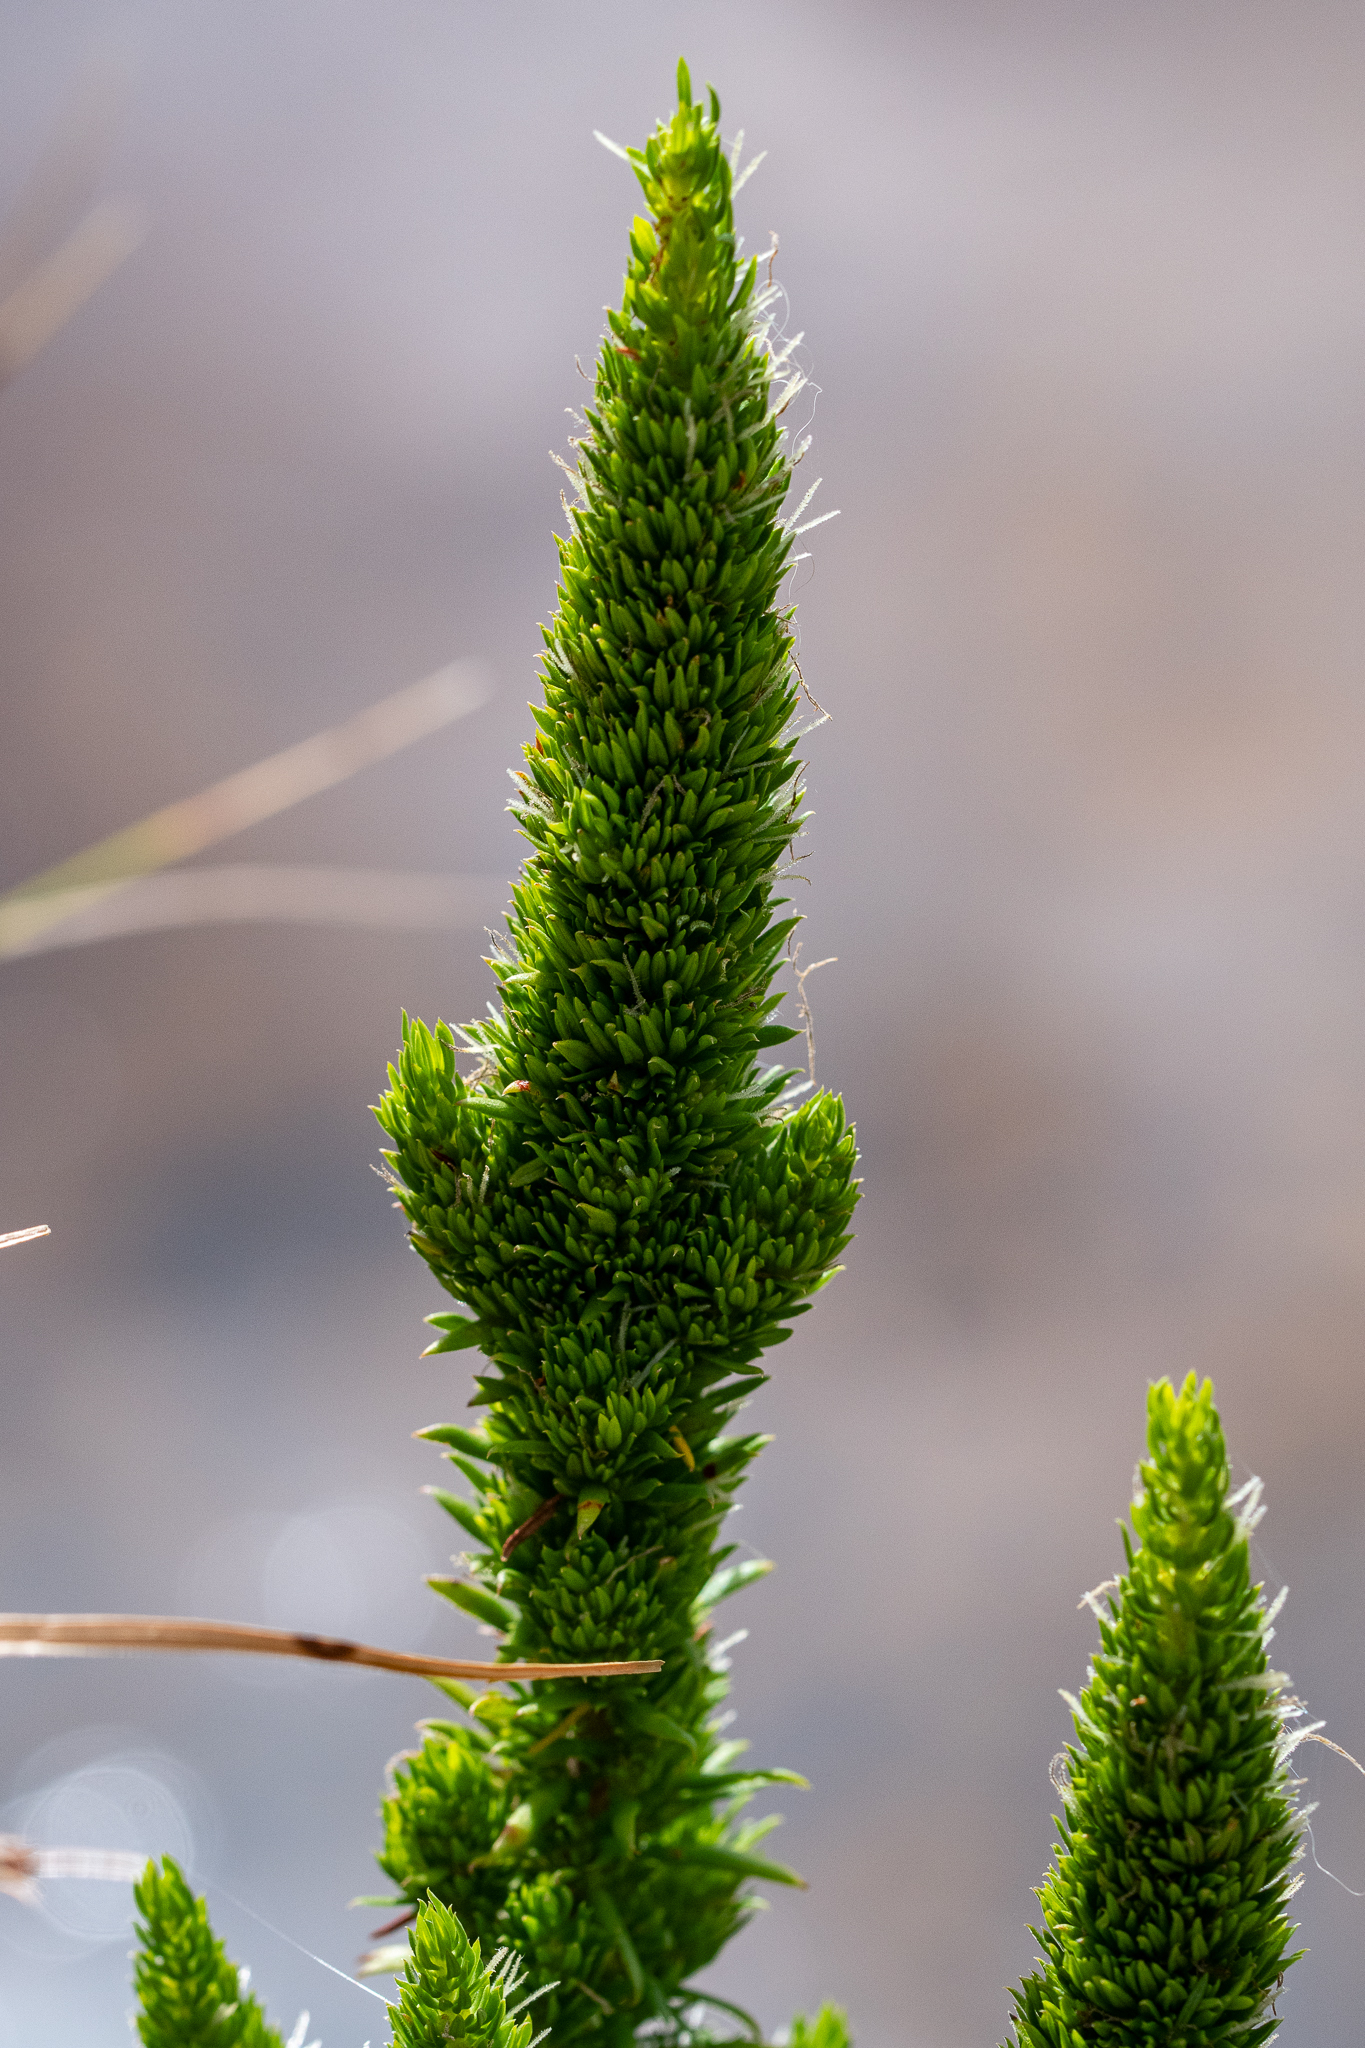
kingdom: Plantae
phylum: Tracheophyta
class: Magnoliopsida
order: Gentianales
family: Rubiaceae
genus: Anthospermum
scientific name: Anthospermum aethiopicum
